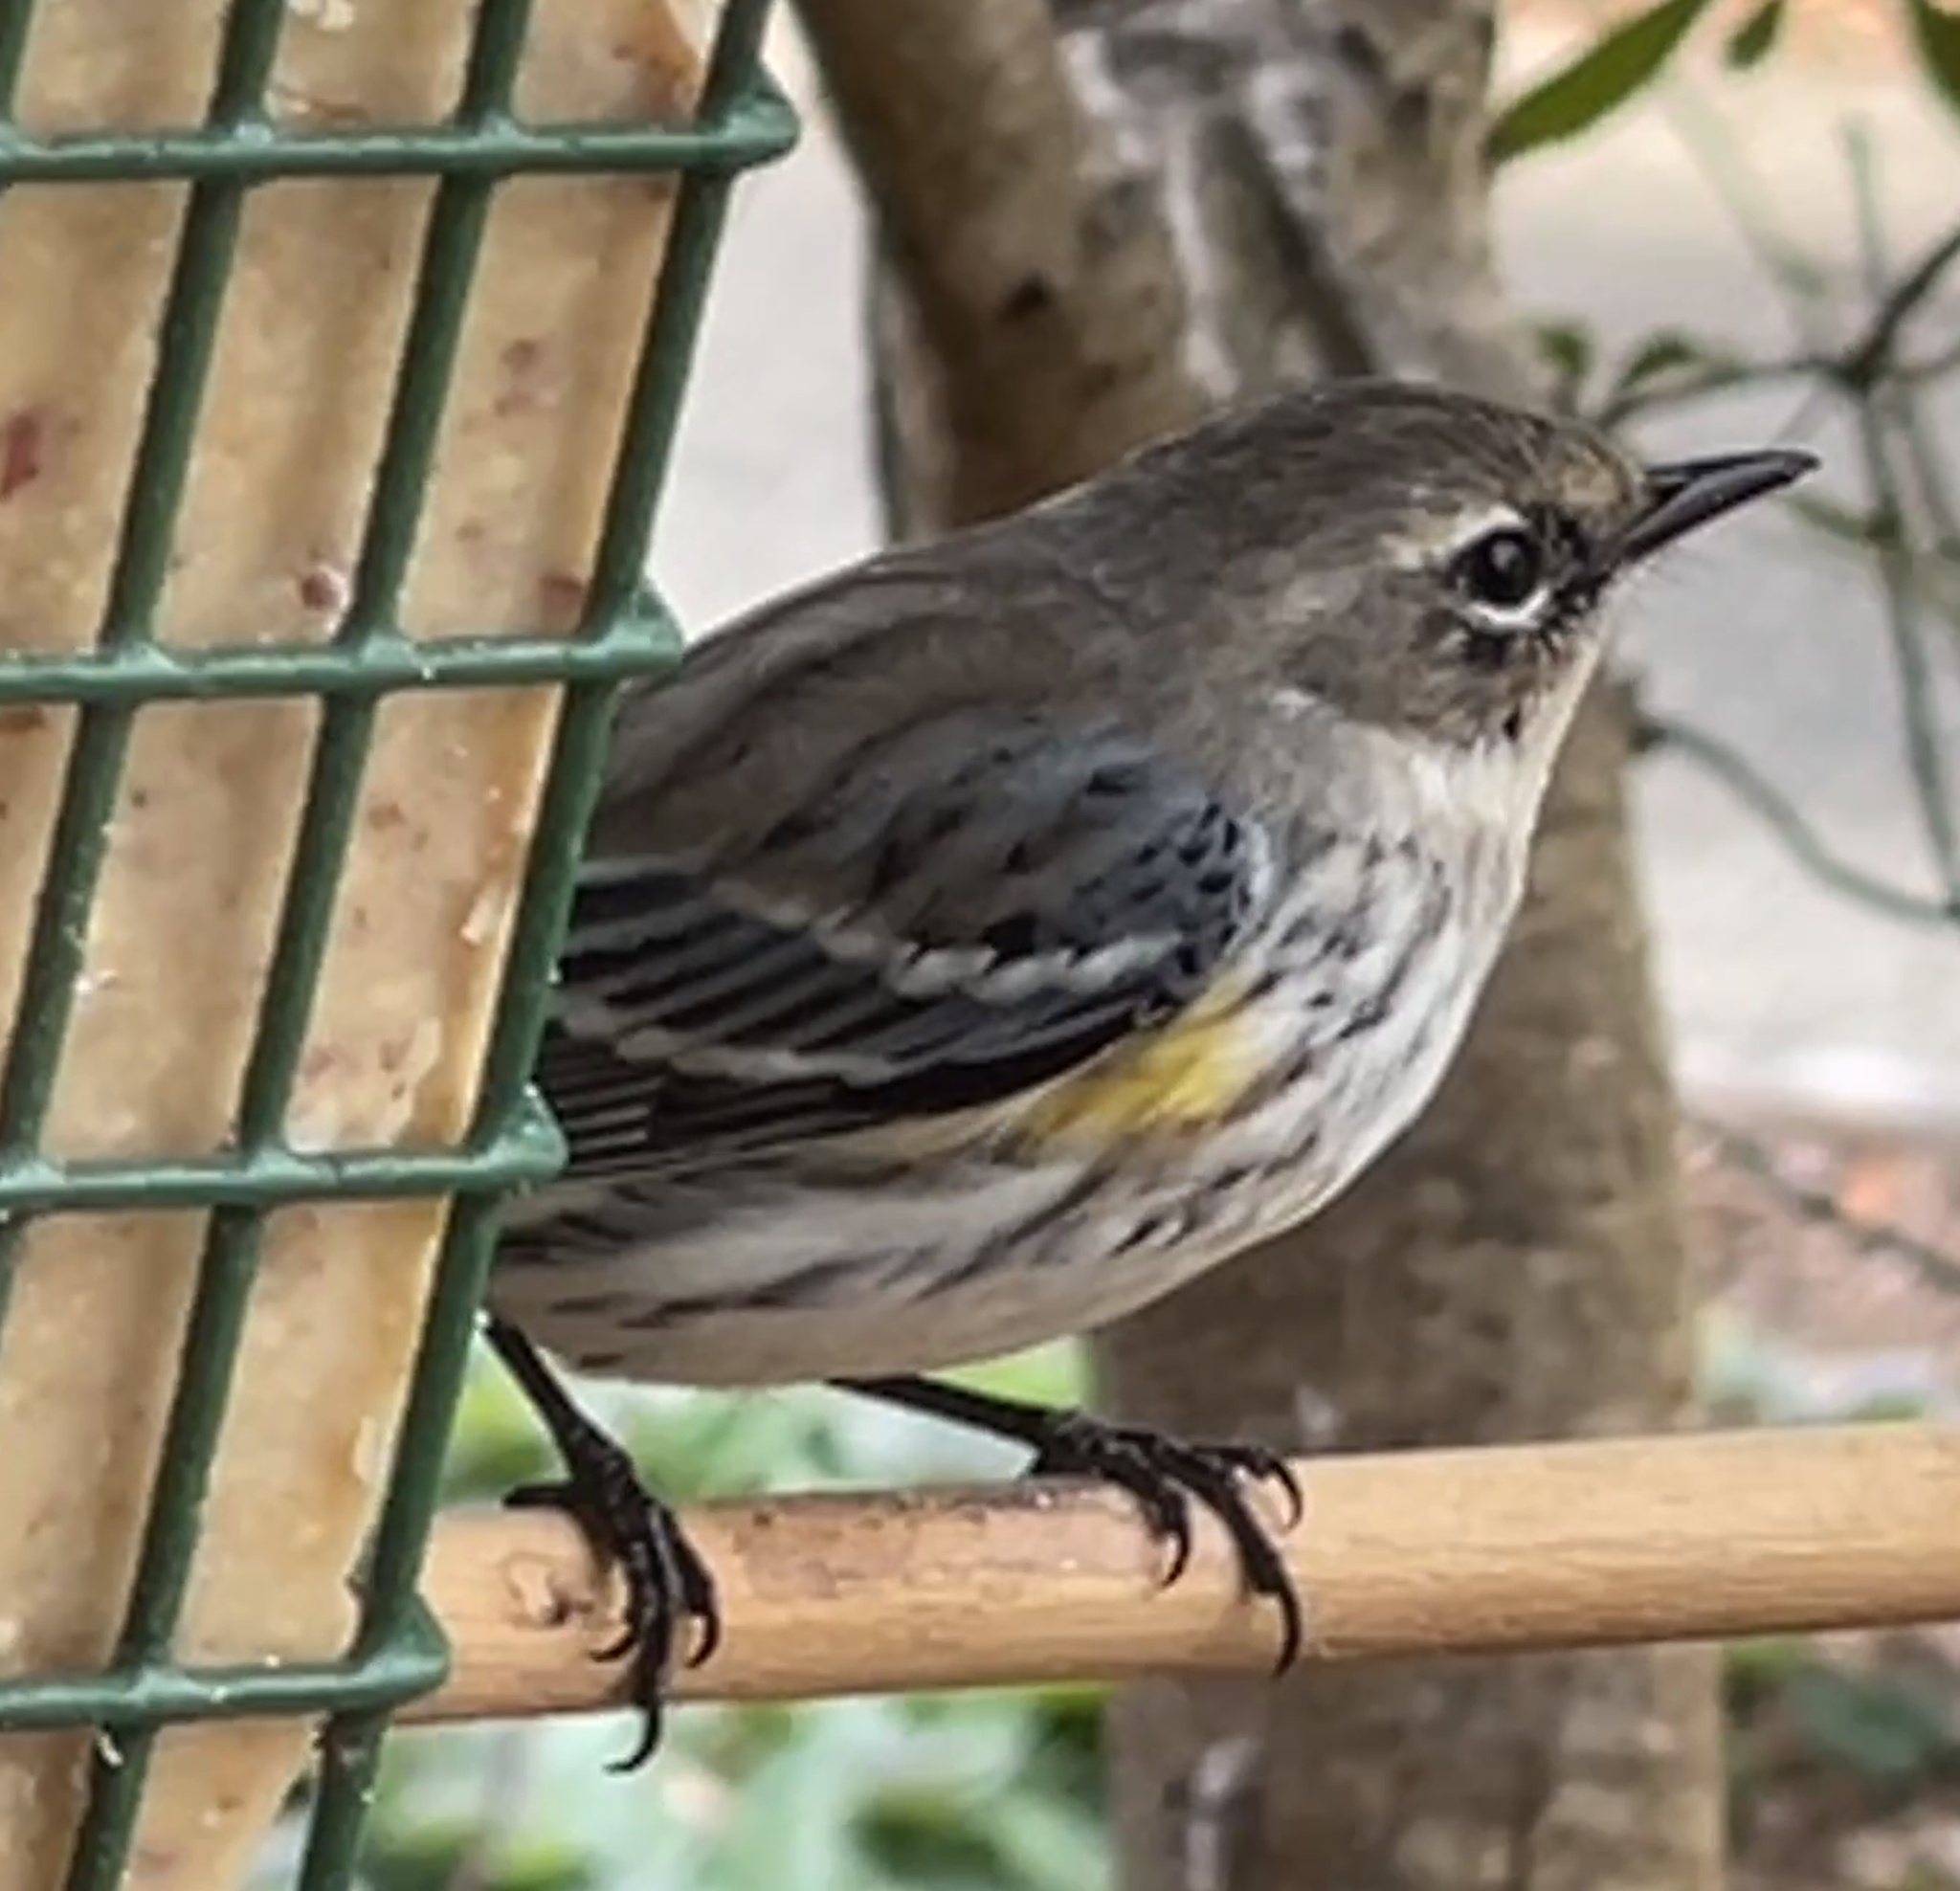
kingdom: Animalia
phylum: Chordata
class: Aves
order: Passeriformes
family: Parulidae
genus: Setophaga
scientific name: Setophaga coronata
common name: Myrtle warbler
